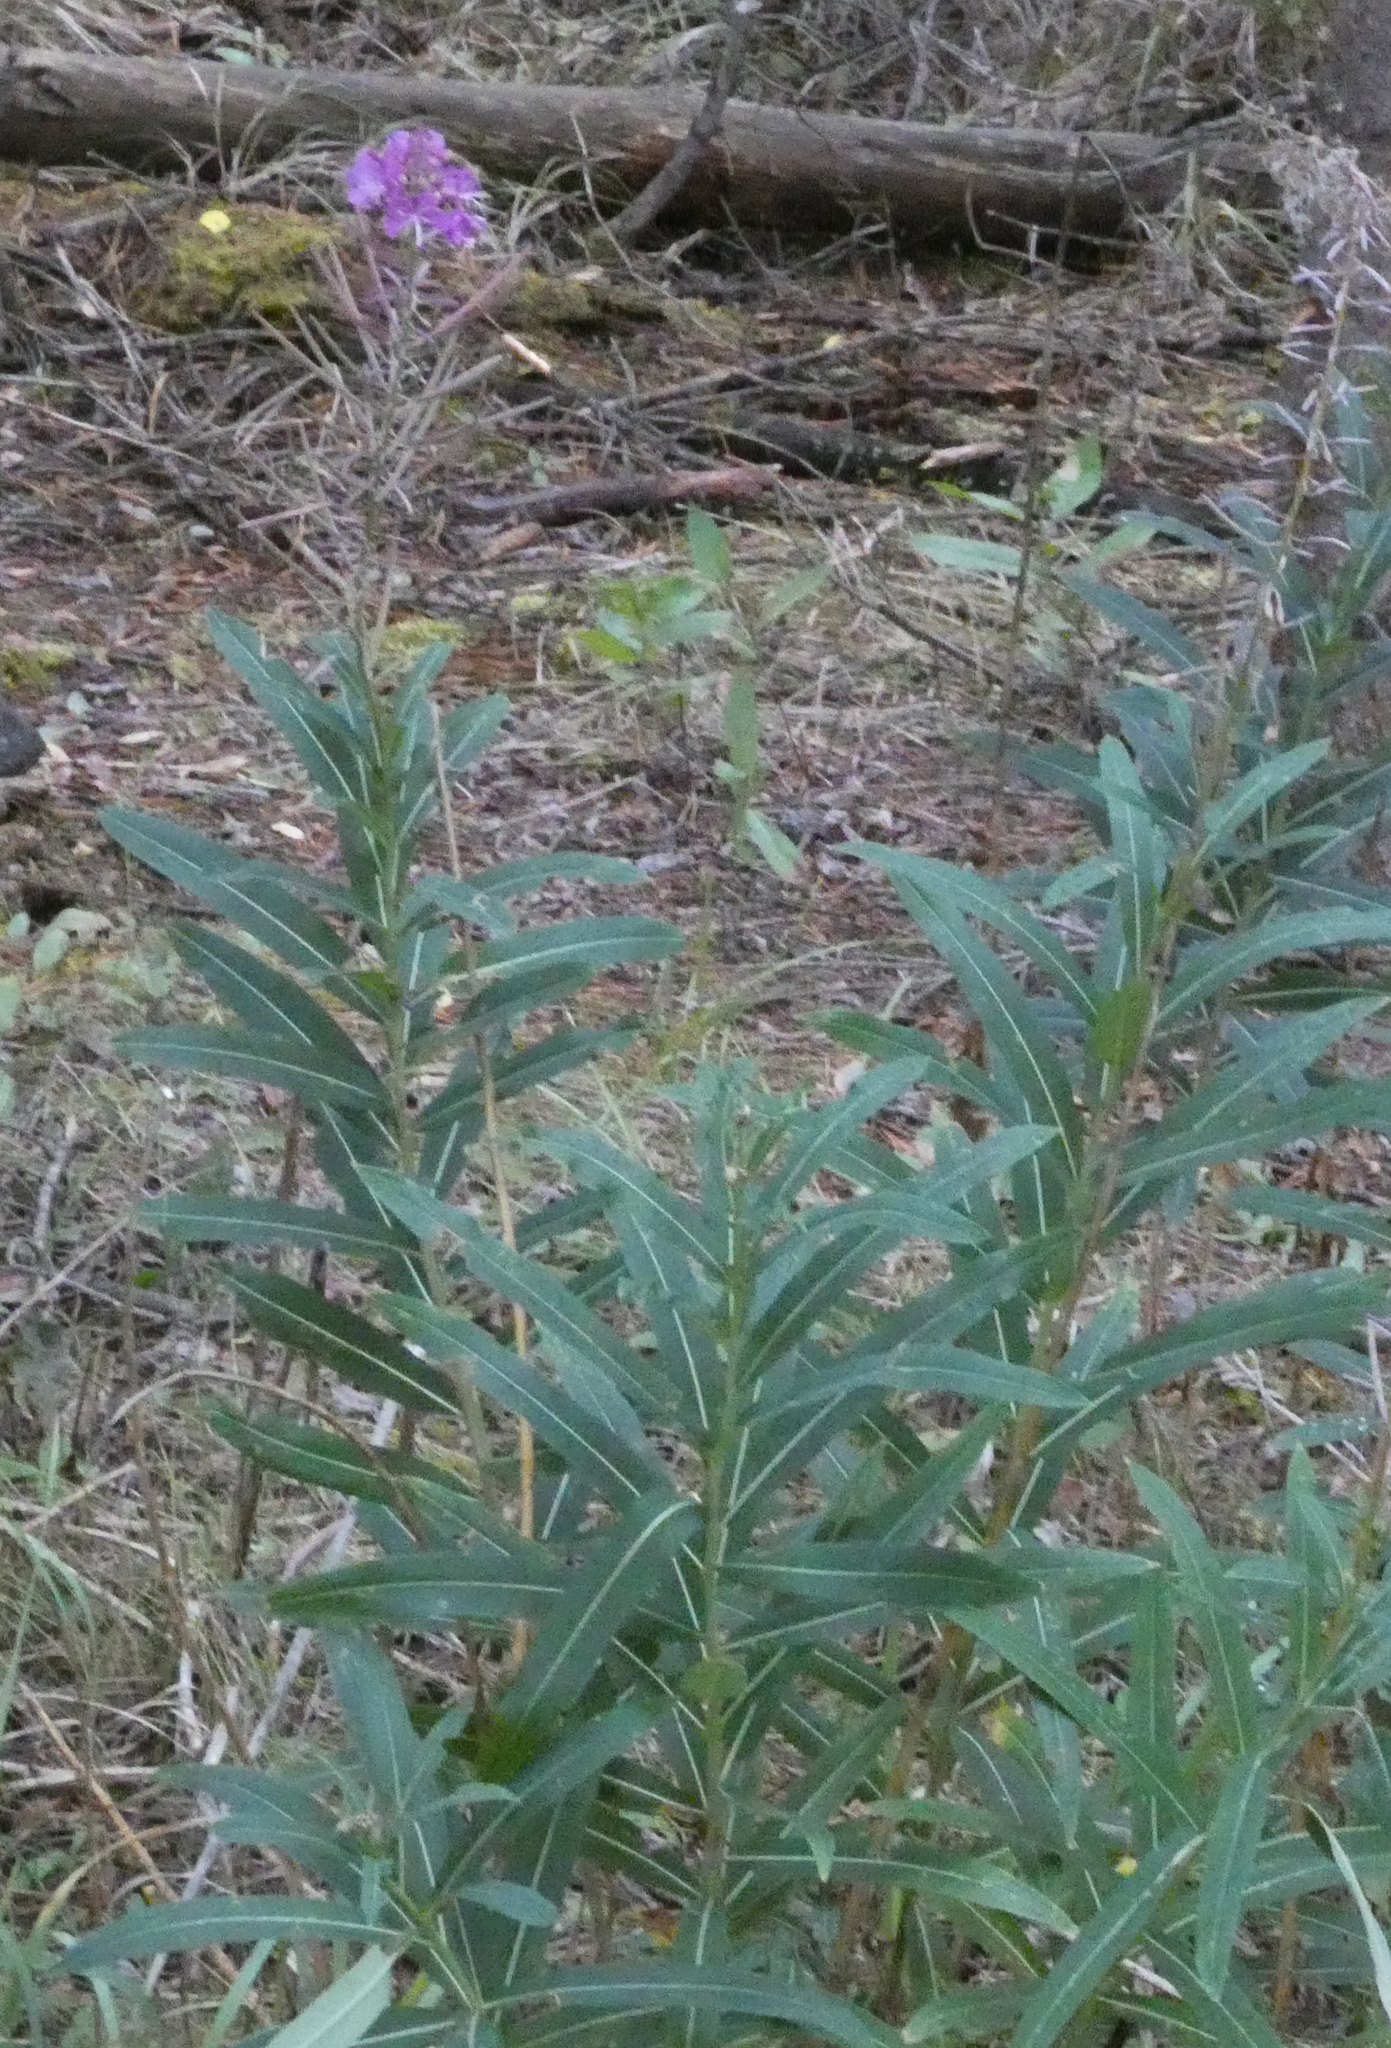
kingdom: Plantae
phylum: Tracheophyta
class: Magnoliopsida
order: Myrtales
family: Onagraceae
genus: Chamaenerion
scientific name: Chamaenerion angustifolium
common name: Fireweed
